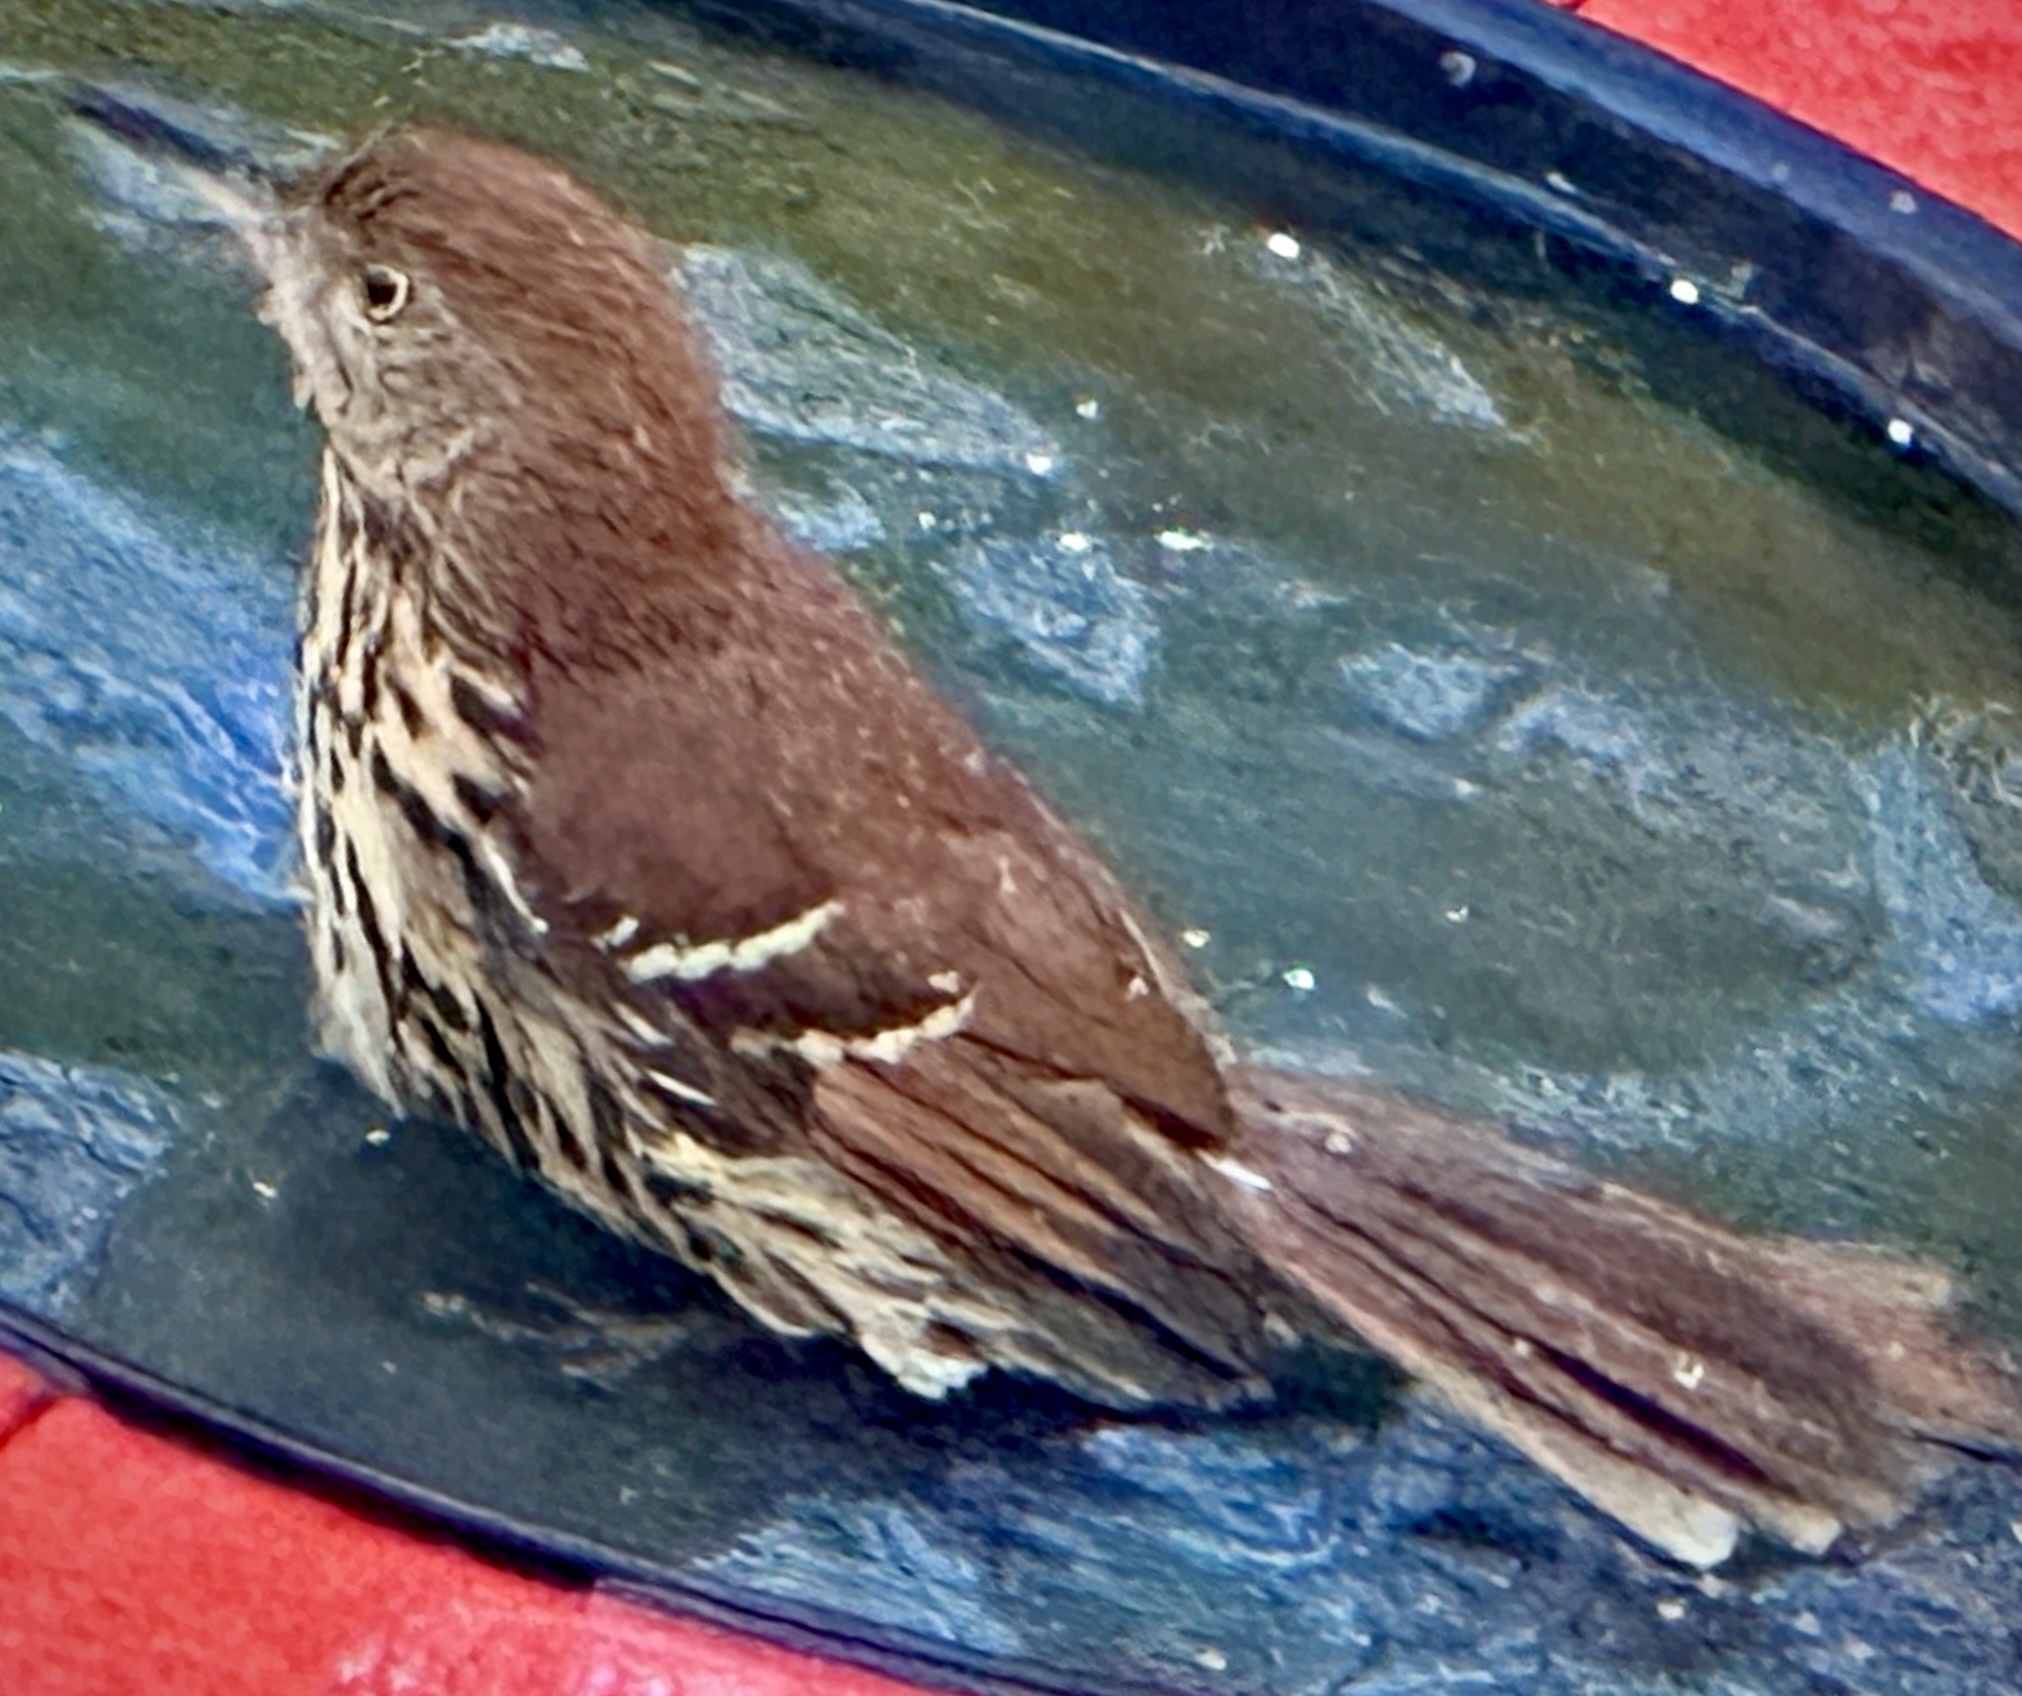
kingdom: Animalia
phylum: Chordata
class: Aves
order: Passeriformes
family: Mimidae
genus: Toxostoma
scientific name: Toxostoma rufum
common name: Brown thrasher
